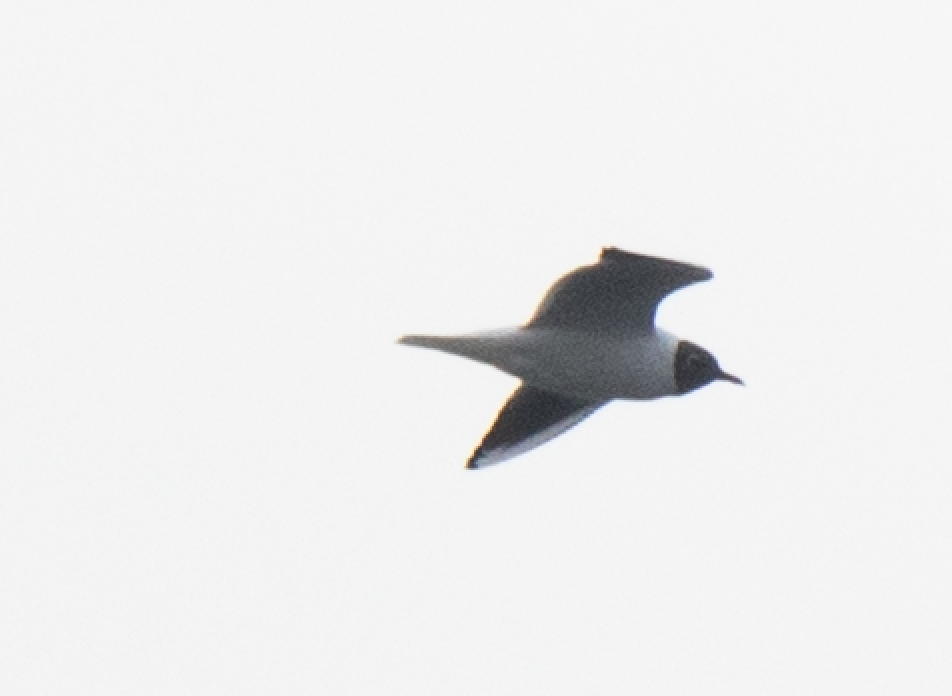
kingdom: Animalia
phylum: Chordata
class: Aves
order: Charadriiformes
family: Laridae
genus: Chroicocephalus
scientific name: Chroicocephalus ridibundus
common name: Black-headed gull
